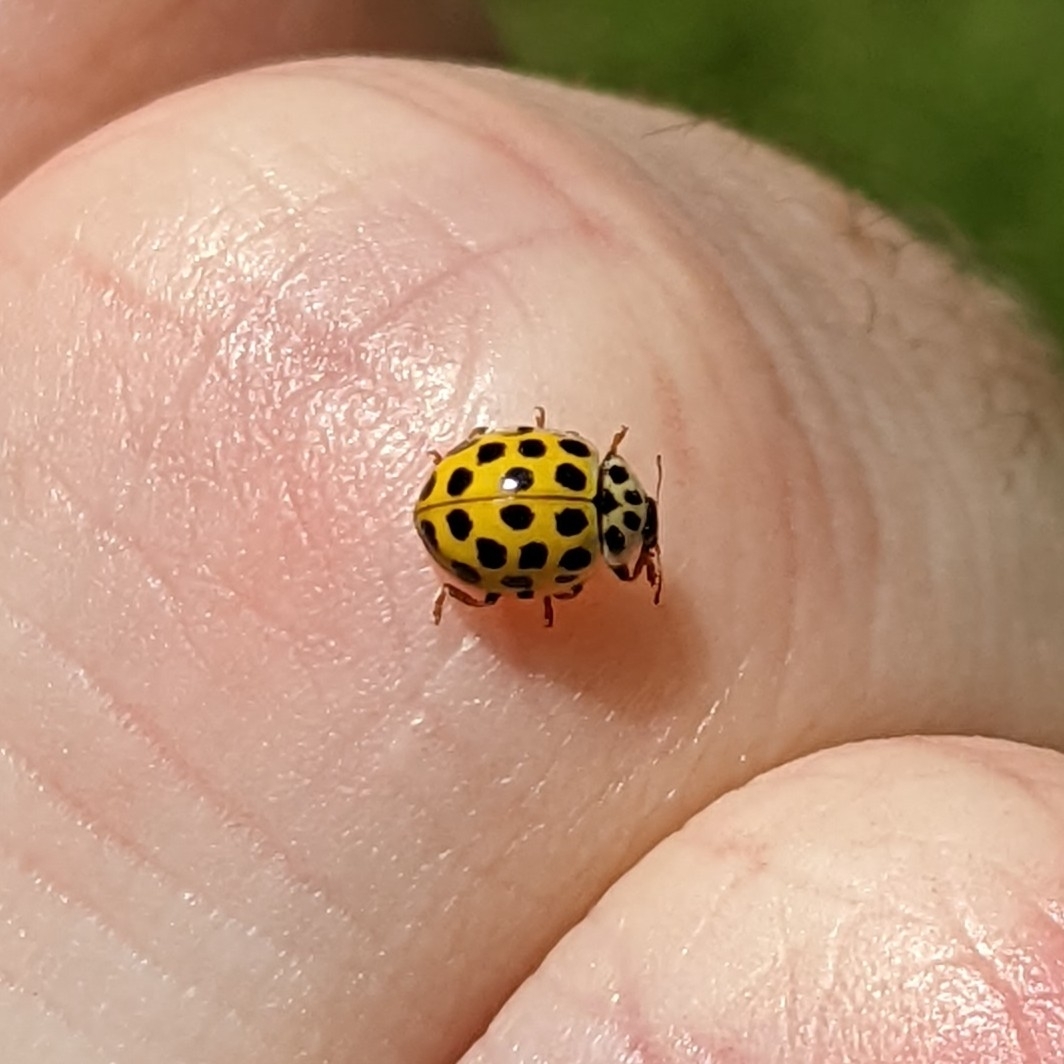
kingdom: Animalia
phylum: Arthropoda
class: Insecta
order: Coleoptera
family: Coccinellidae
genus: Psyllobora
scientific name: Psyllobora vigintiduopunctata
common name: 22-spot ladybird
